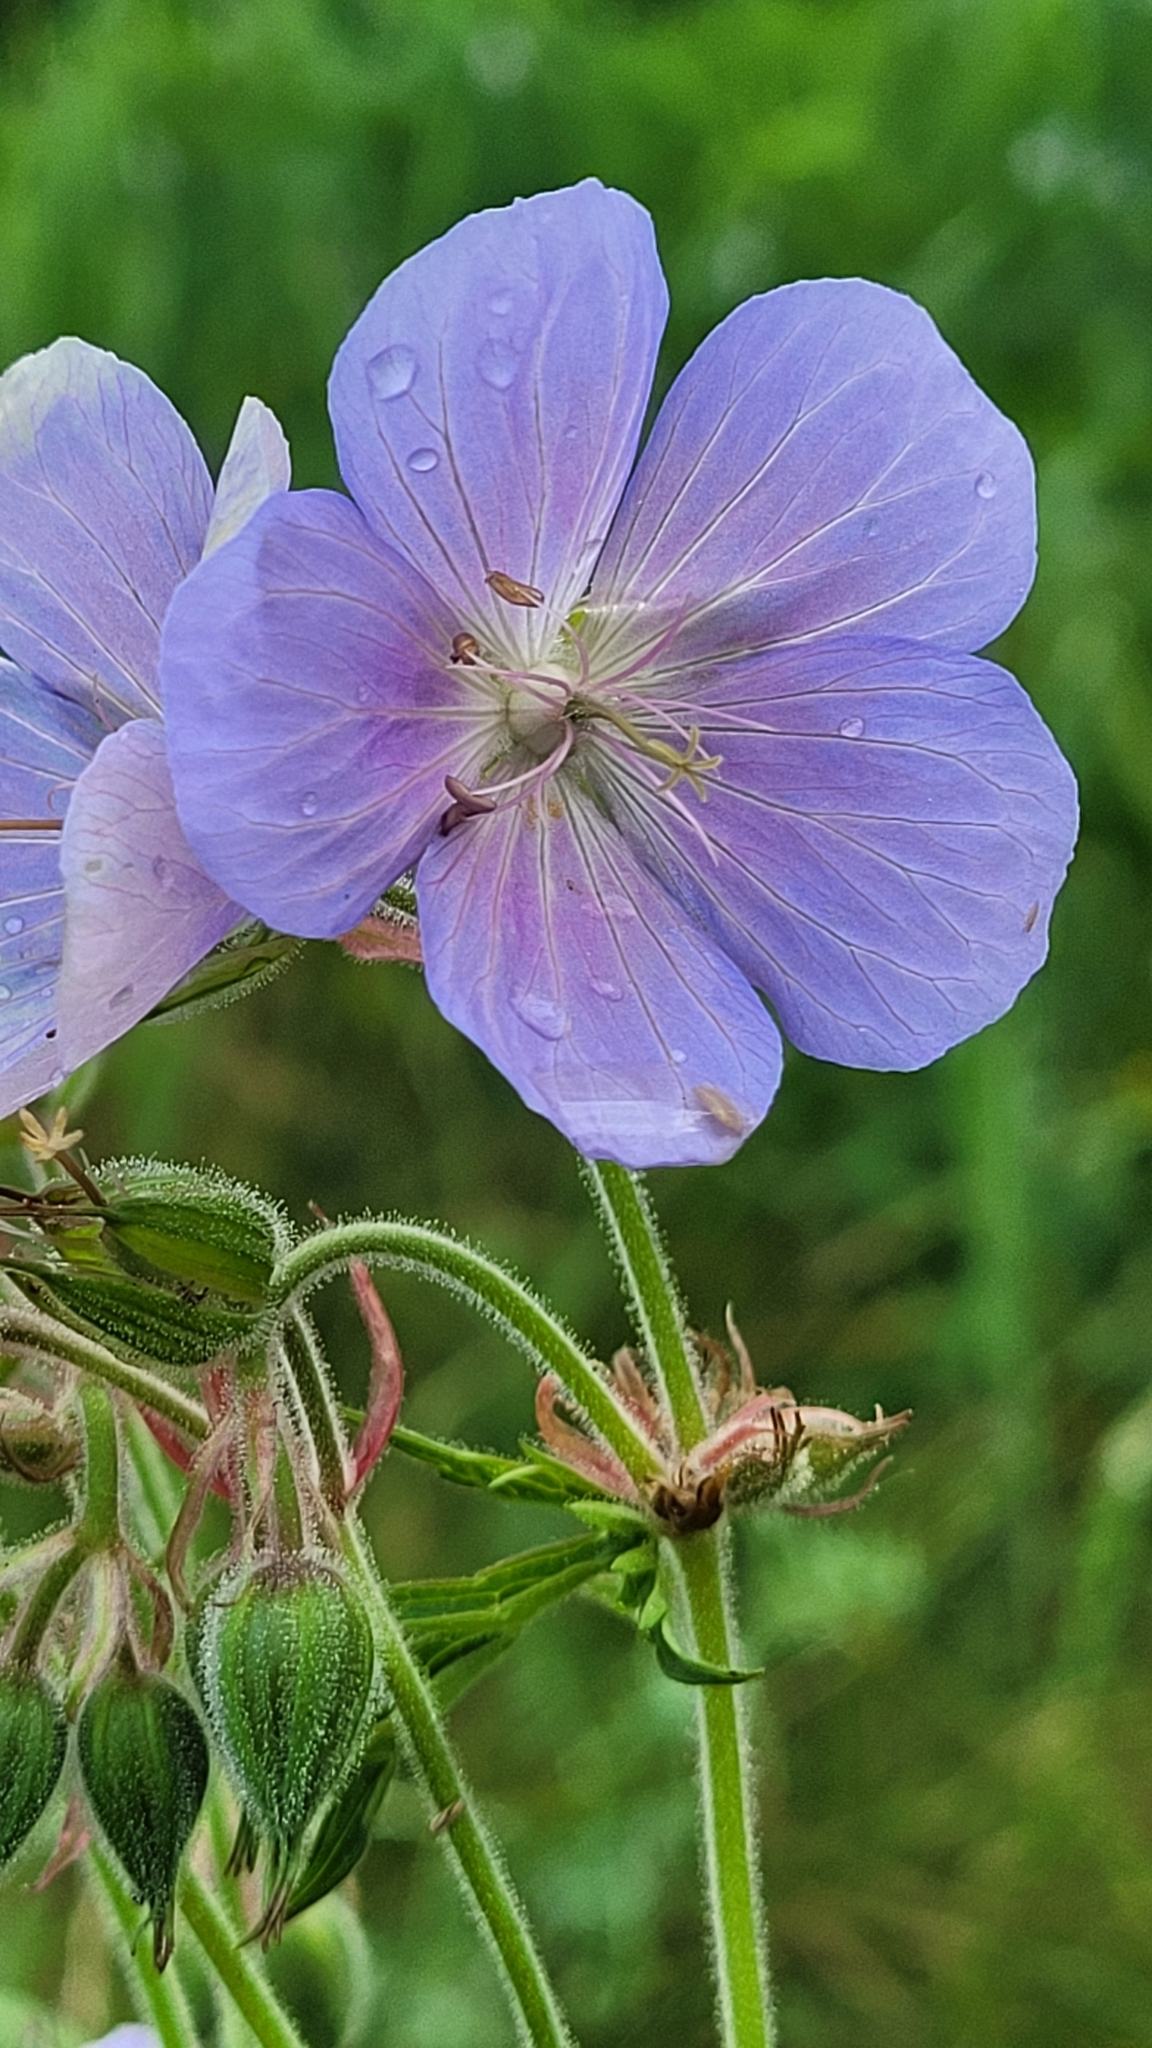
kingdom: Plantae
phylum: Tracheophyta
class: Magnoliopsida
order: Geraniales
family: Geraniaceae
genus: Geranium
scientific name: Geranium pratense
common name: Meadow crane's-bill
